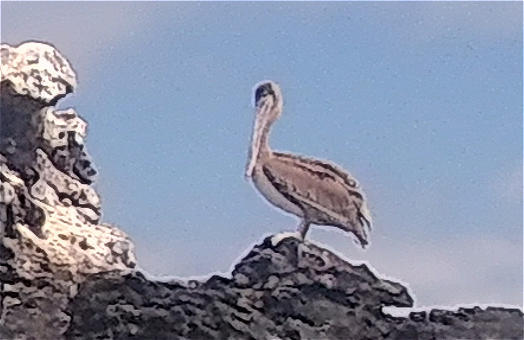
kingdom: Animalia
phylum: Chordata
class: Aves
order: Pelecaniformes
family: Pelecanidae
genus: Pelecanus
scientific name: Pelecanus occidentalis
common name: Brown pelican
